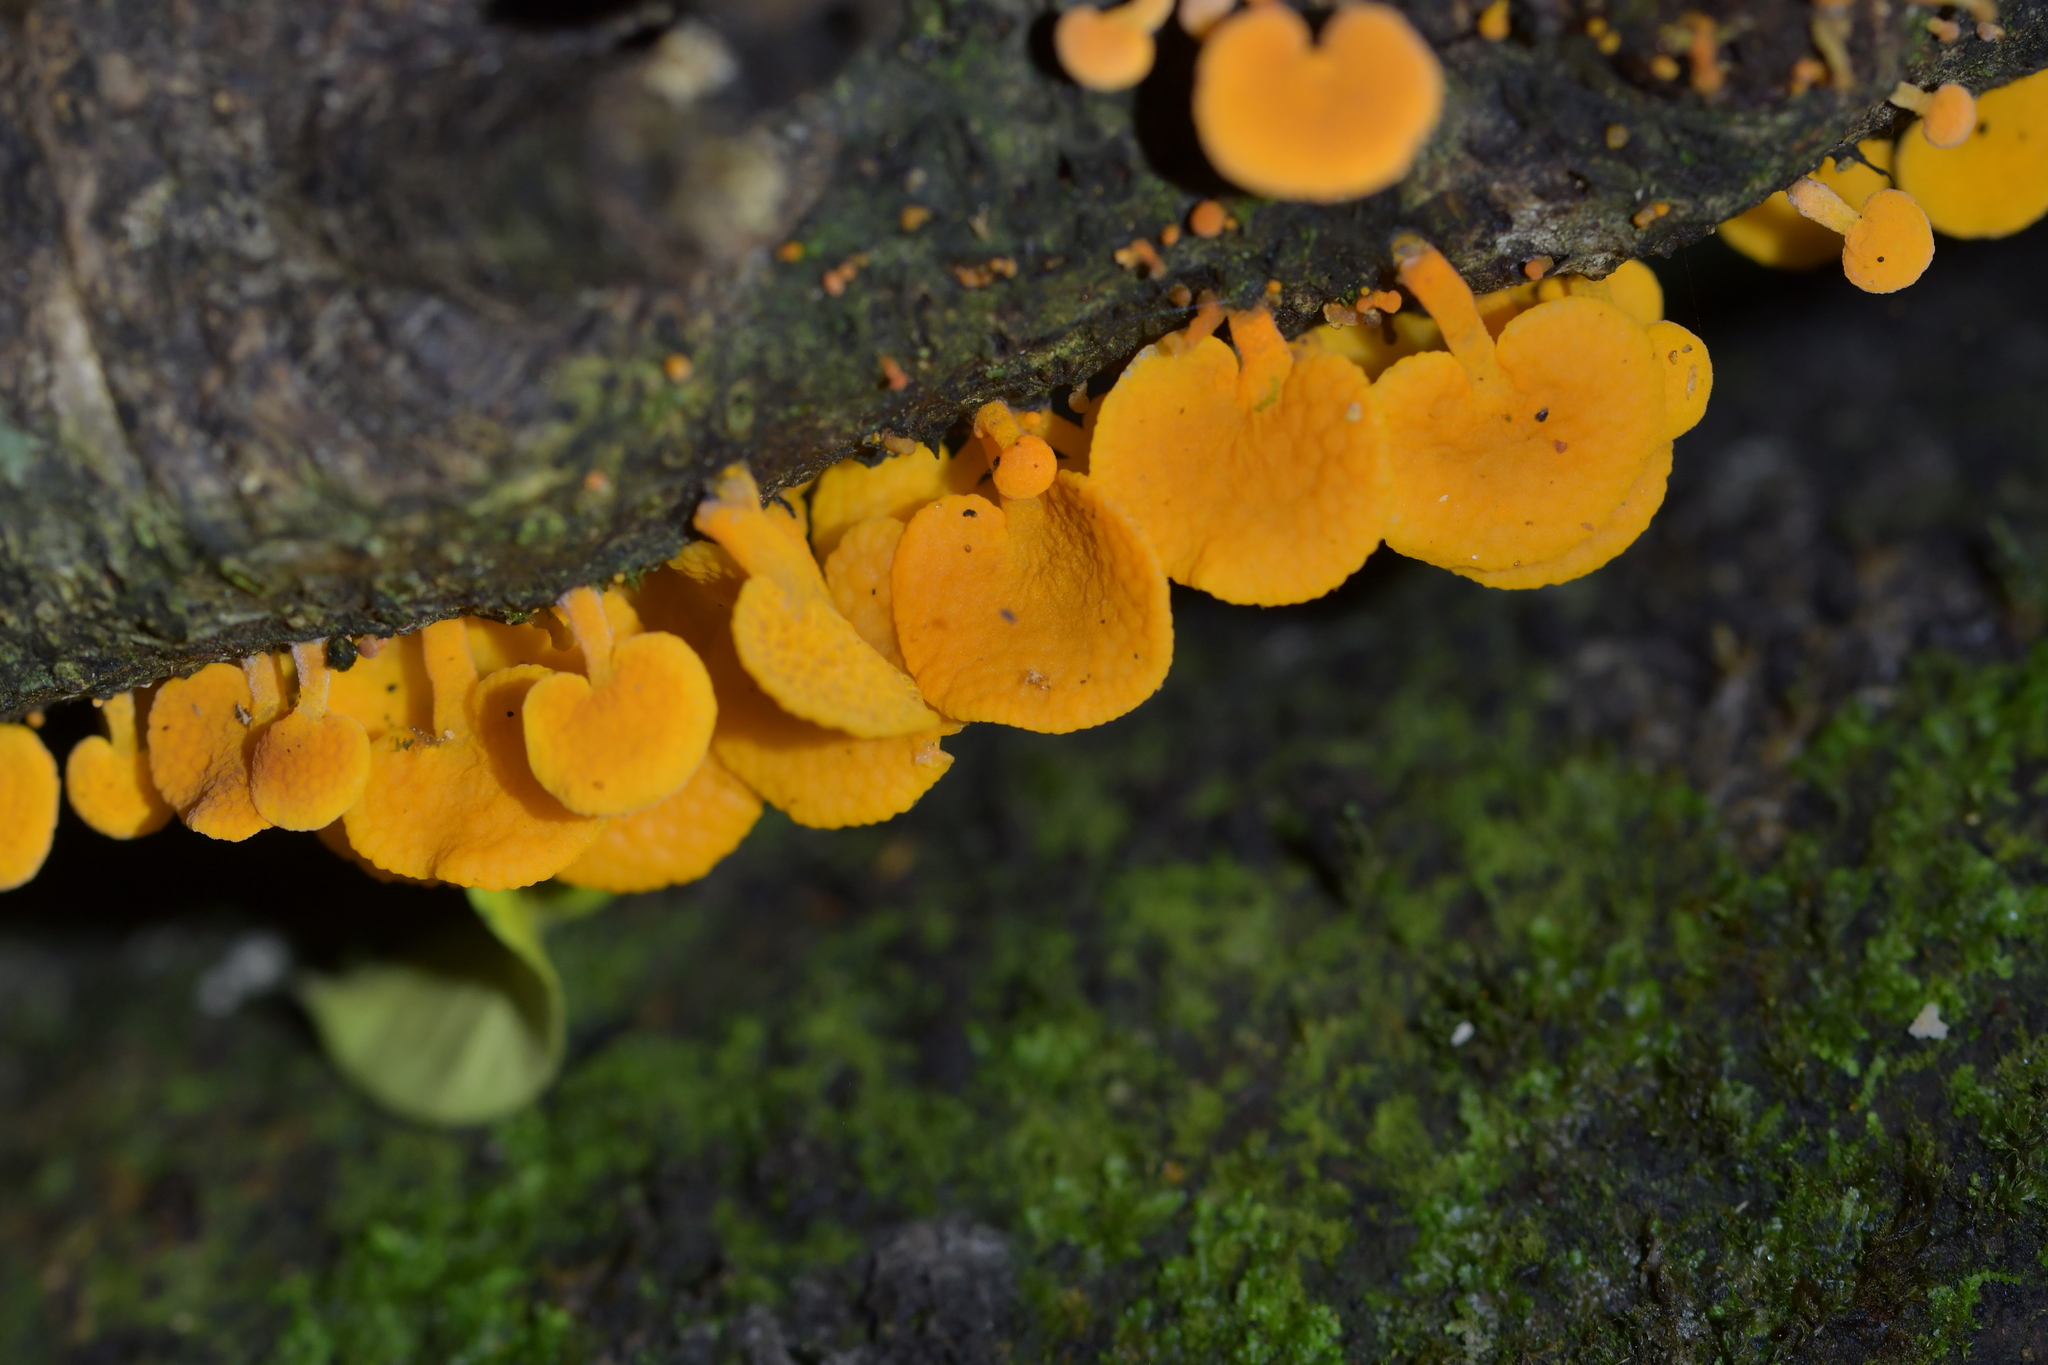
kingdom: Fungi
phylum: Basidiomycota
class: Agaricomycetes
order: Agaricales
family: Mycenaceae
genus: Favolaschia
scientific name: Favolaschia claudopus
